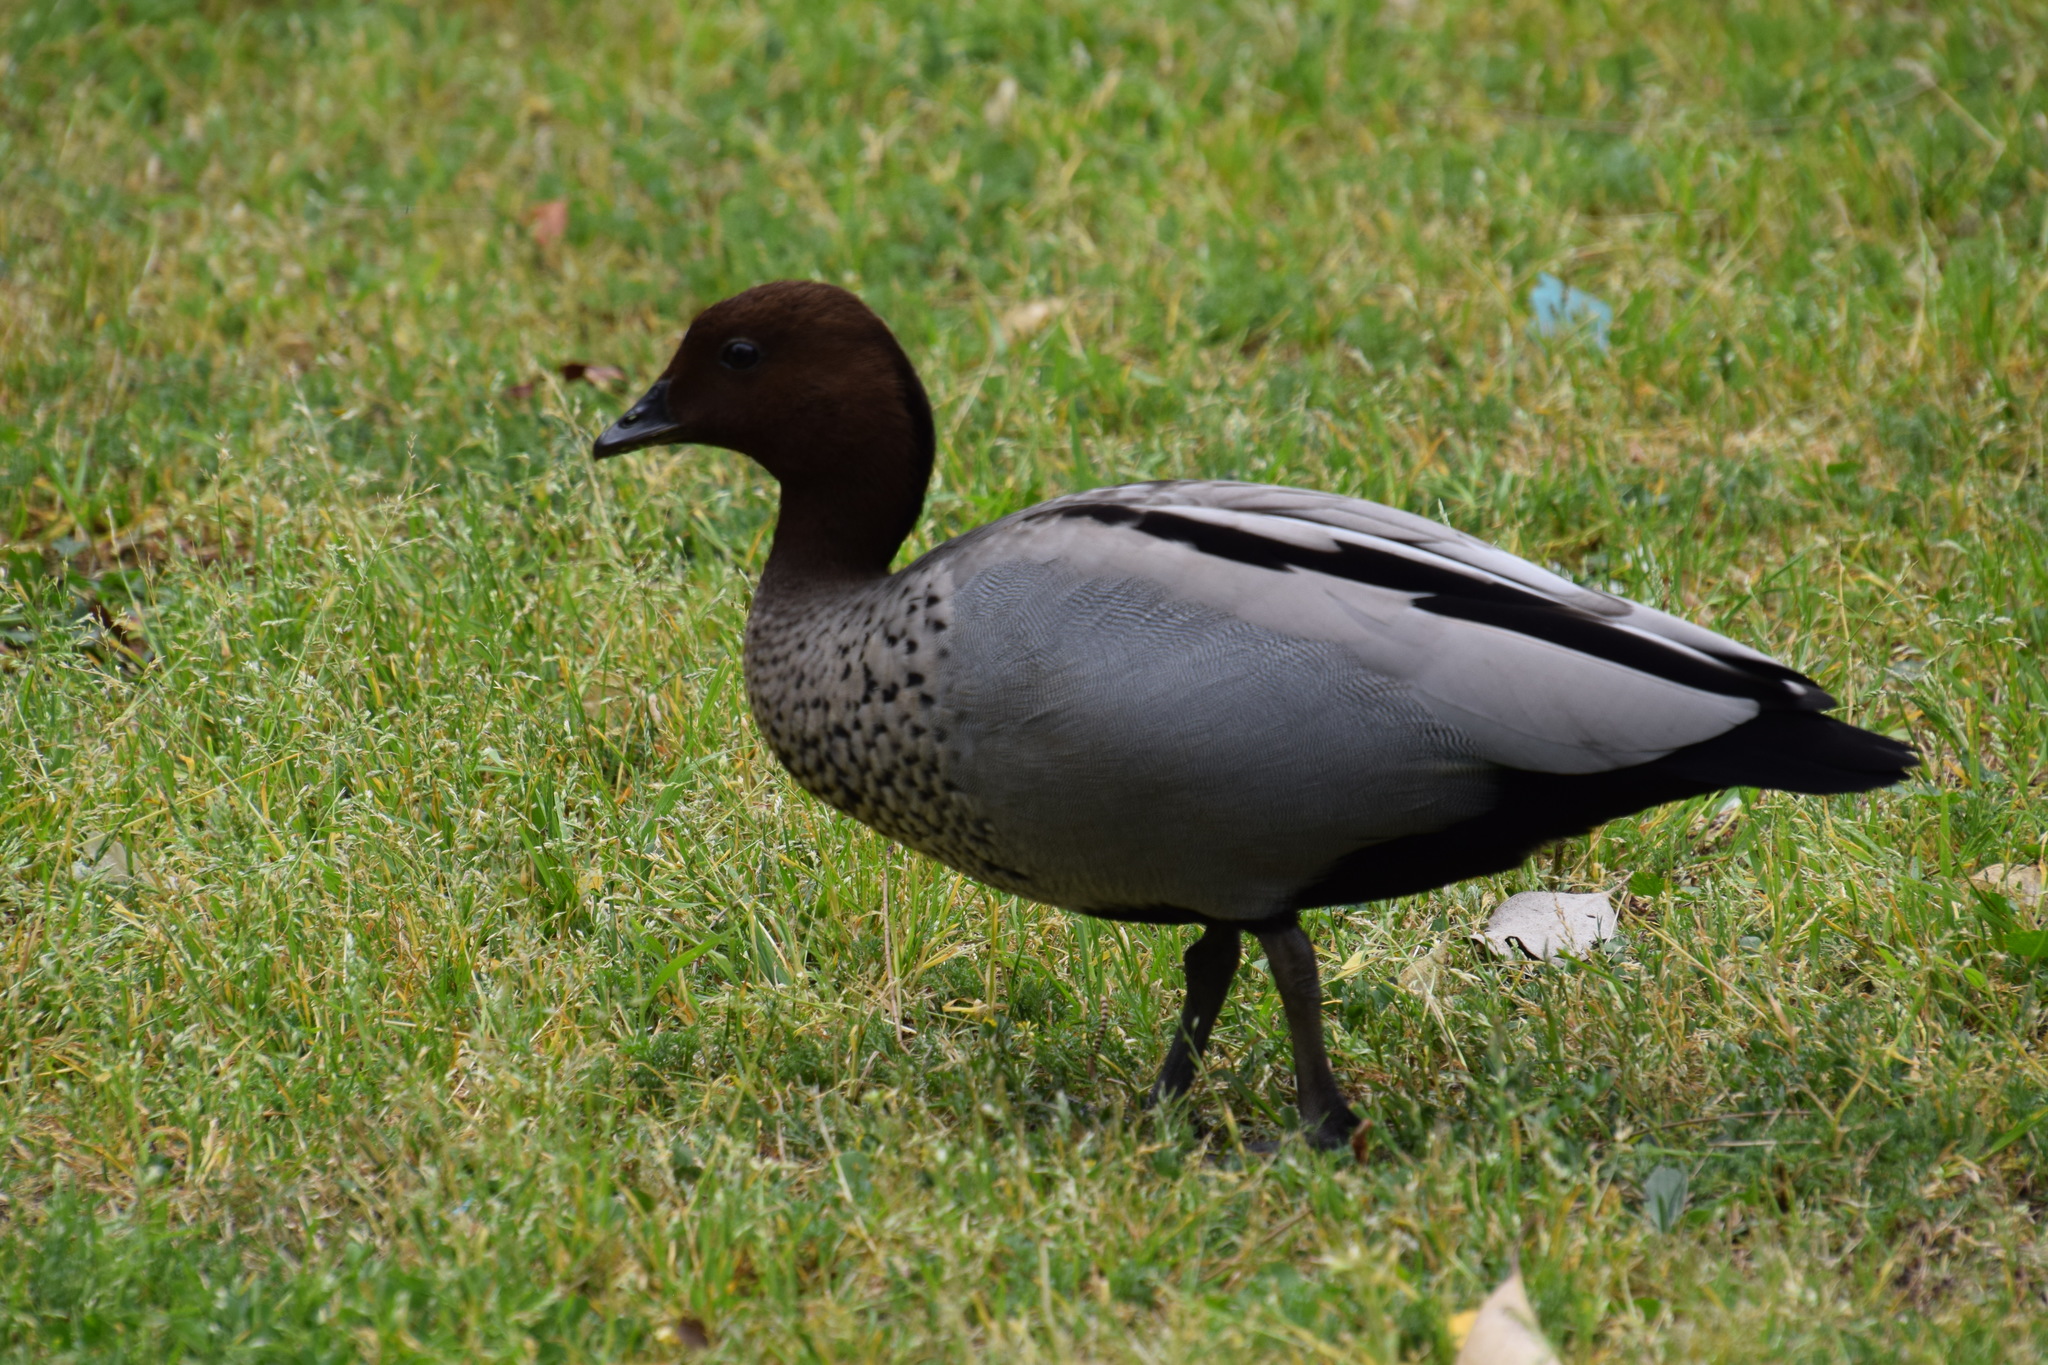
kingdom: Animalia
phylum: Chordata
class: Aves
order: Anseriformes
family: Anatidae
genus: Chenonetta
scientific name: Chenonetta jubata
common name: Maned duck
